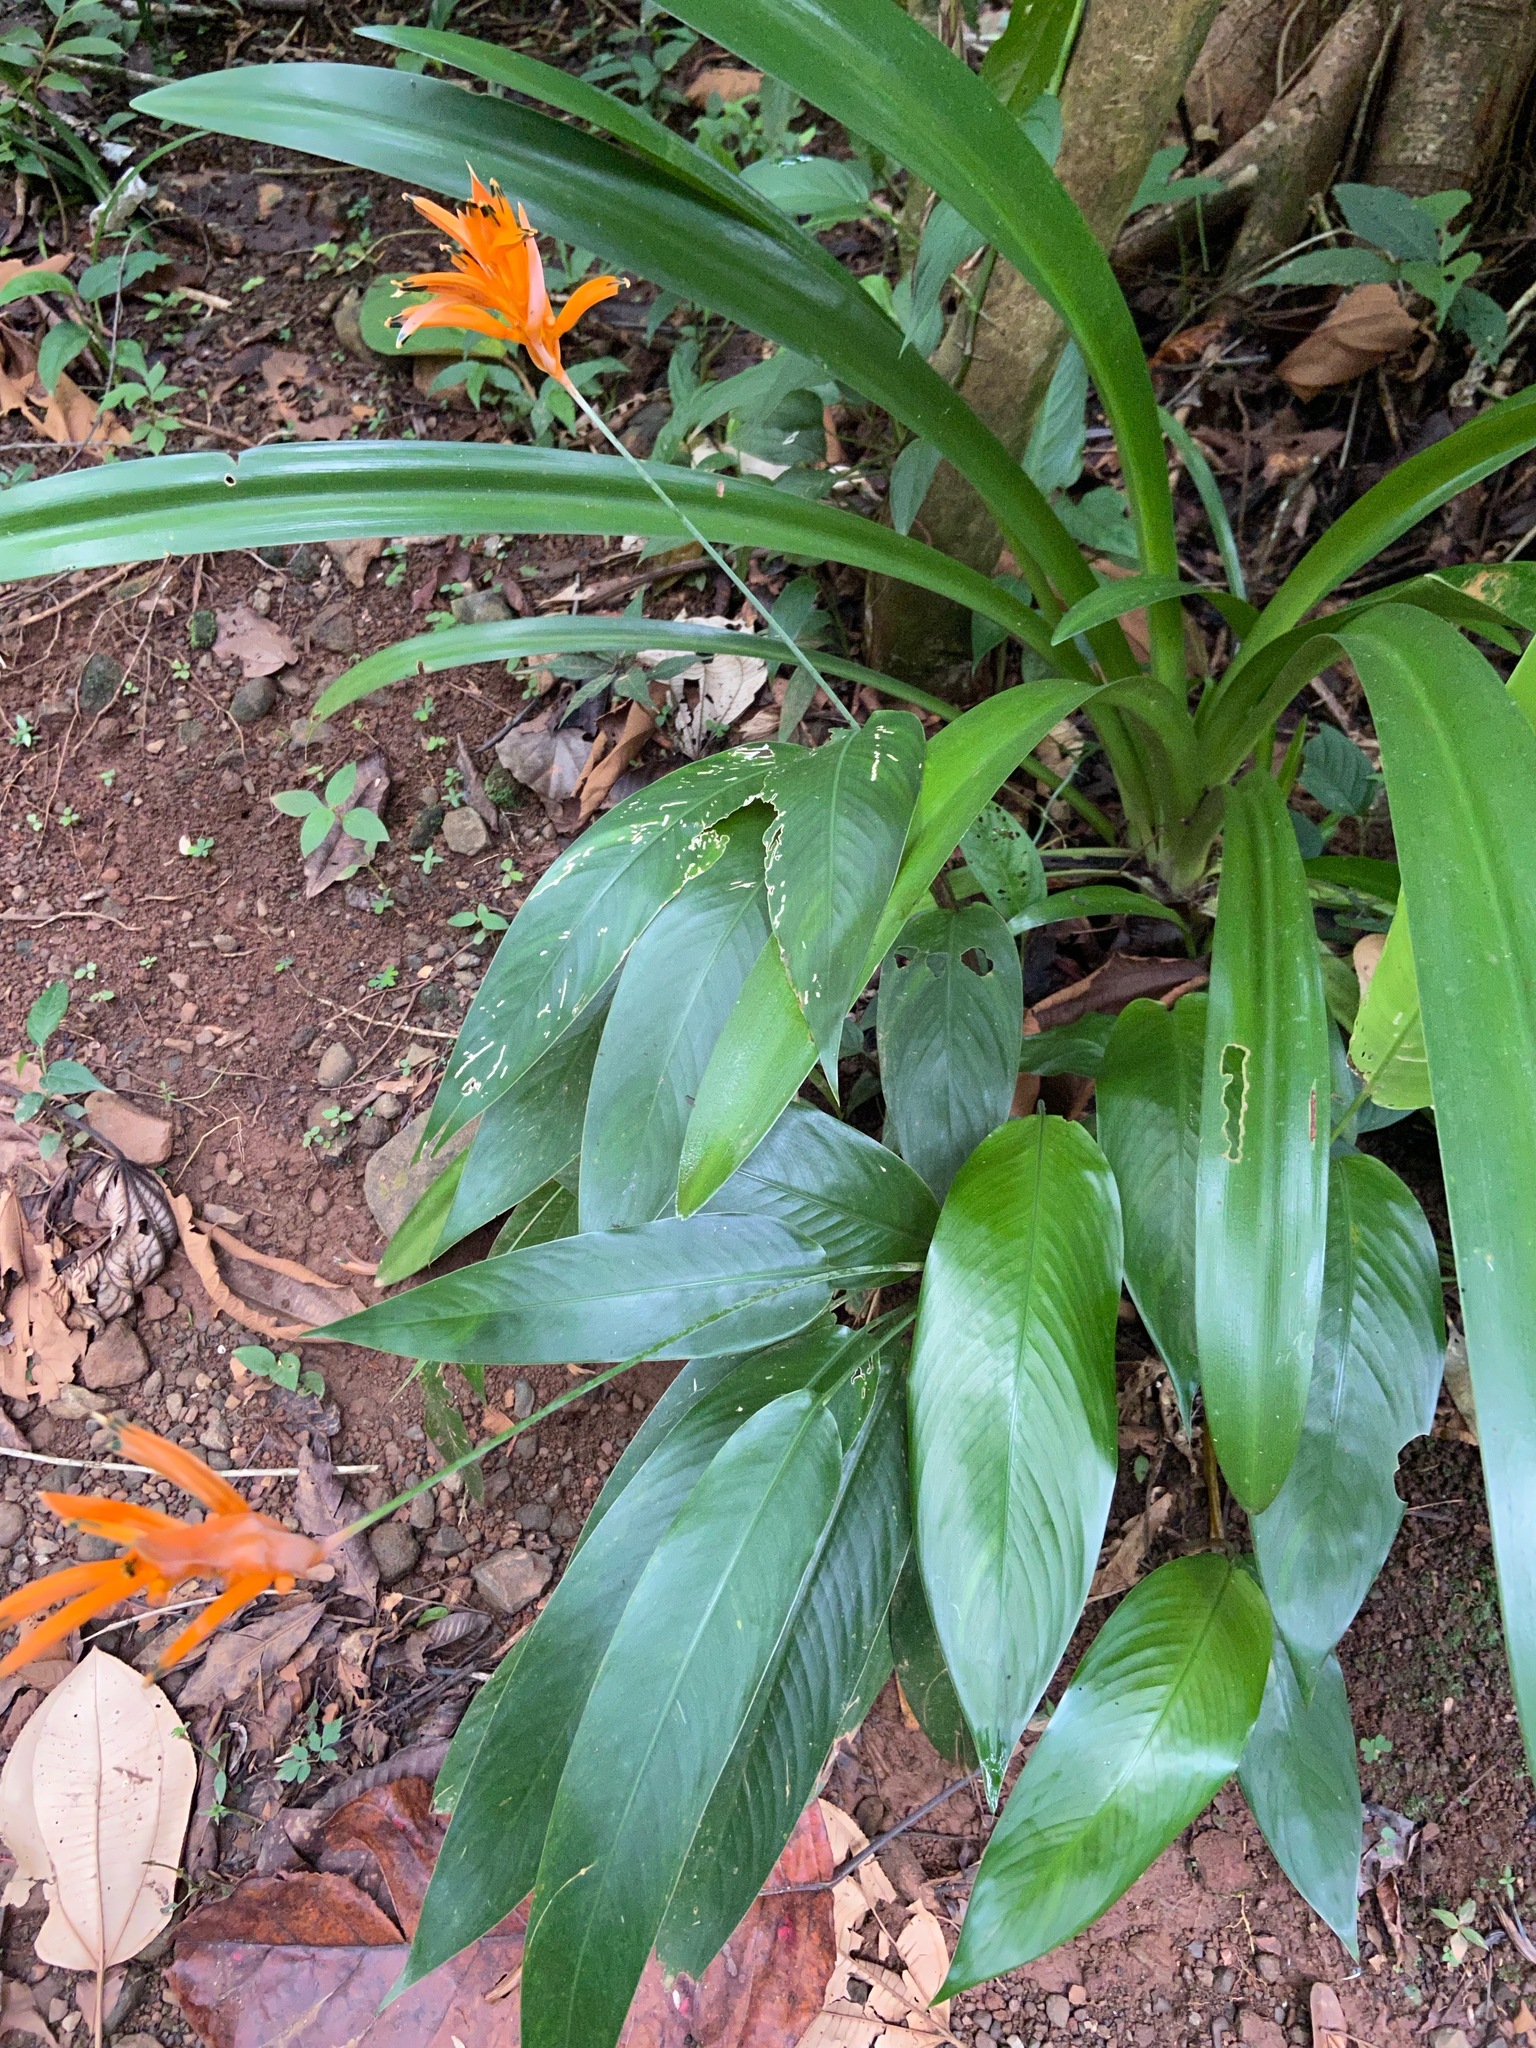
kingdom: Plantae
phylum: Tracheophyta
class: Liliopsida
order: Zingiberales
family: Heliconiaceae
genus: Heliconia
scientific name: Heliconia psittacorum
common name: Parrot's-flower
